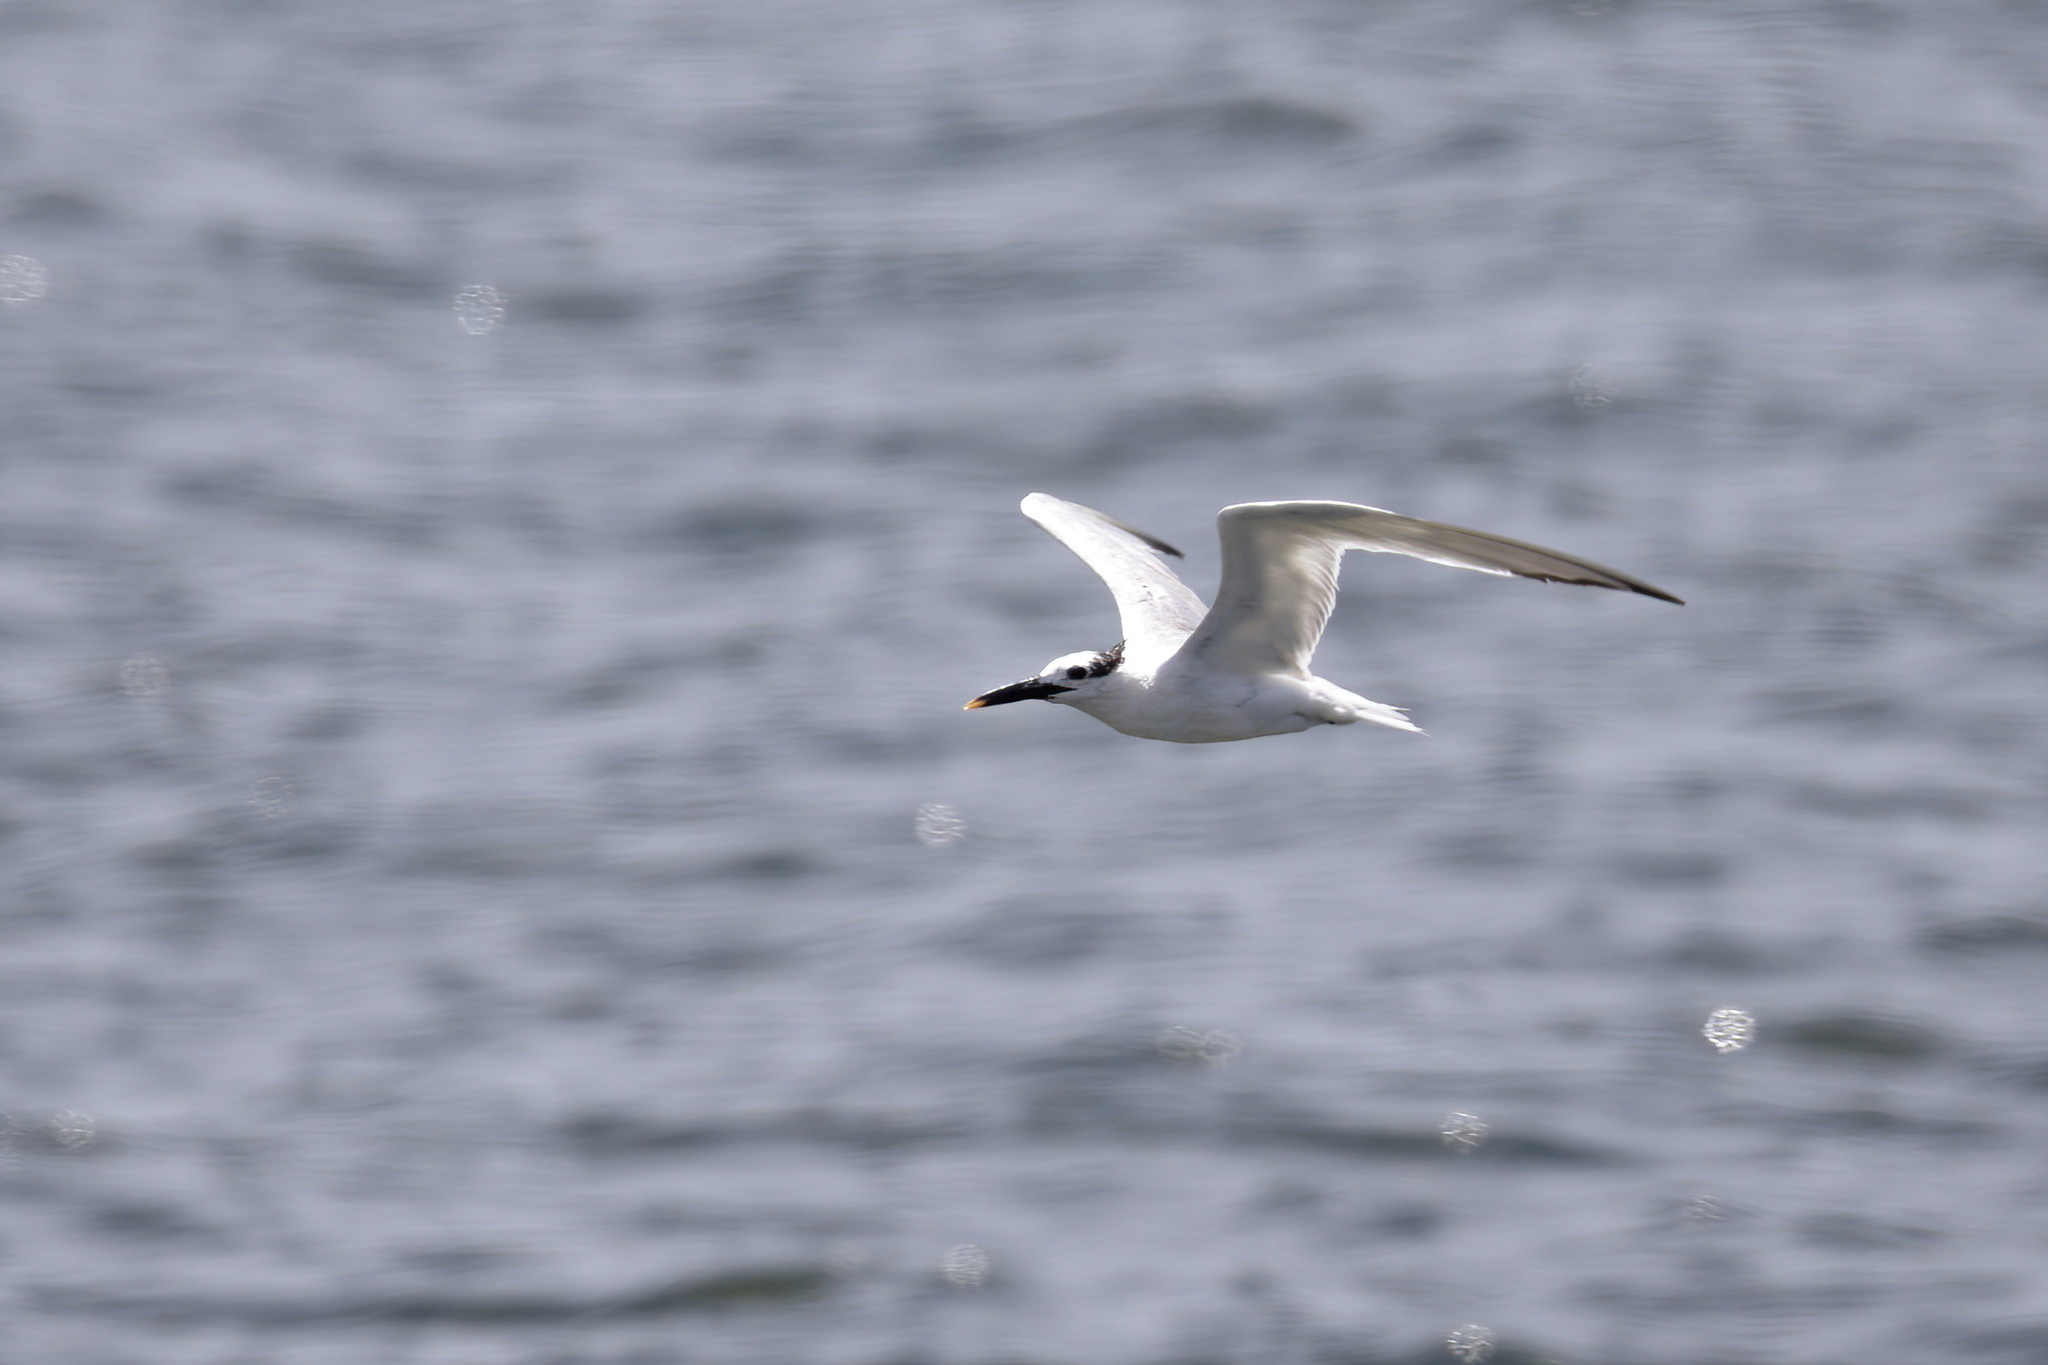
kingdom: Animalia
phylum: Chordata
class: Aves
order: Charadriiformes
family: Laridae
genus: Thalasseus
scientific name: Thalasseus sandvicensis
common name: Sandwich tern
